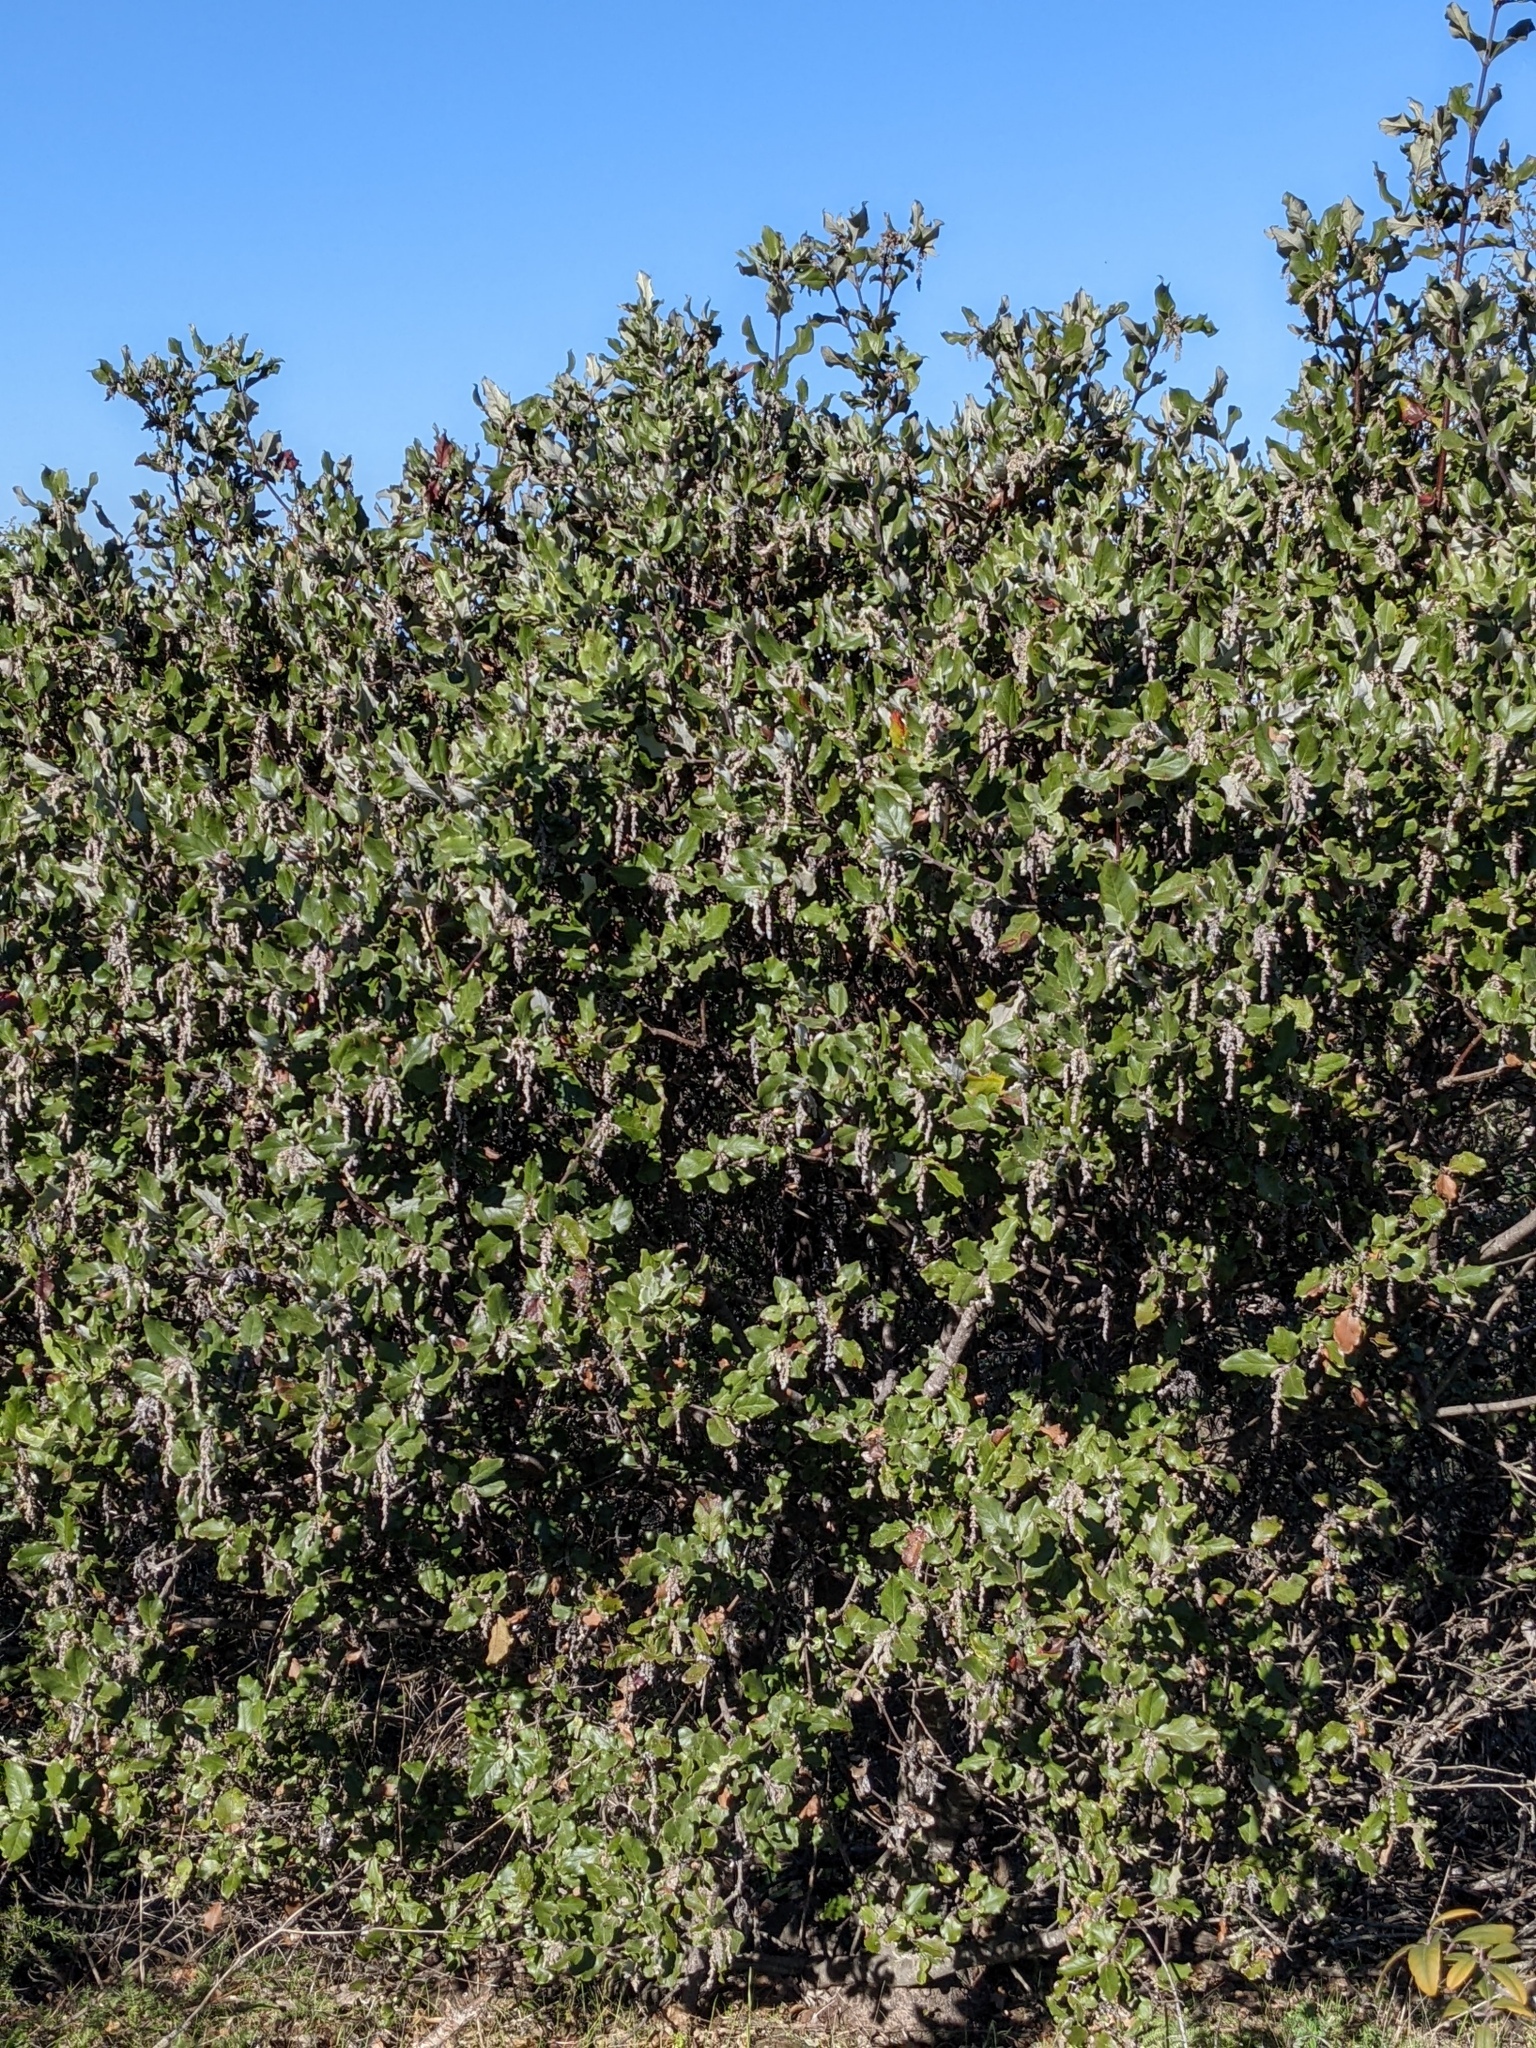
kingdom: Plantae
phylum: Tracheophyta
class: Magnoliopsida
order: Garryales
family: Garryaceae
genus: Garrya
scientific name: Garrya elliptica
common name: Silk-tassel
